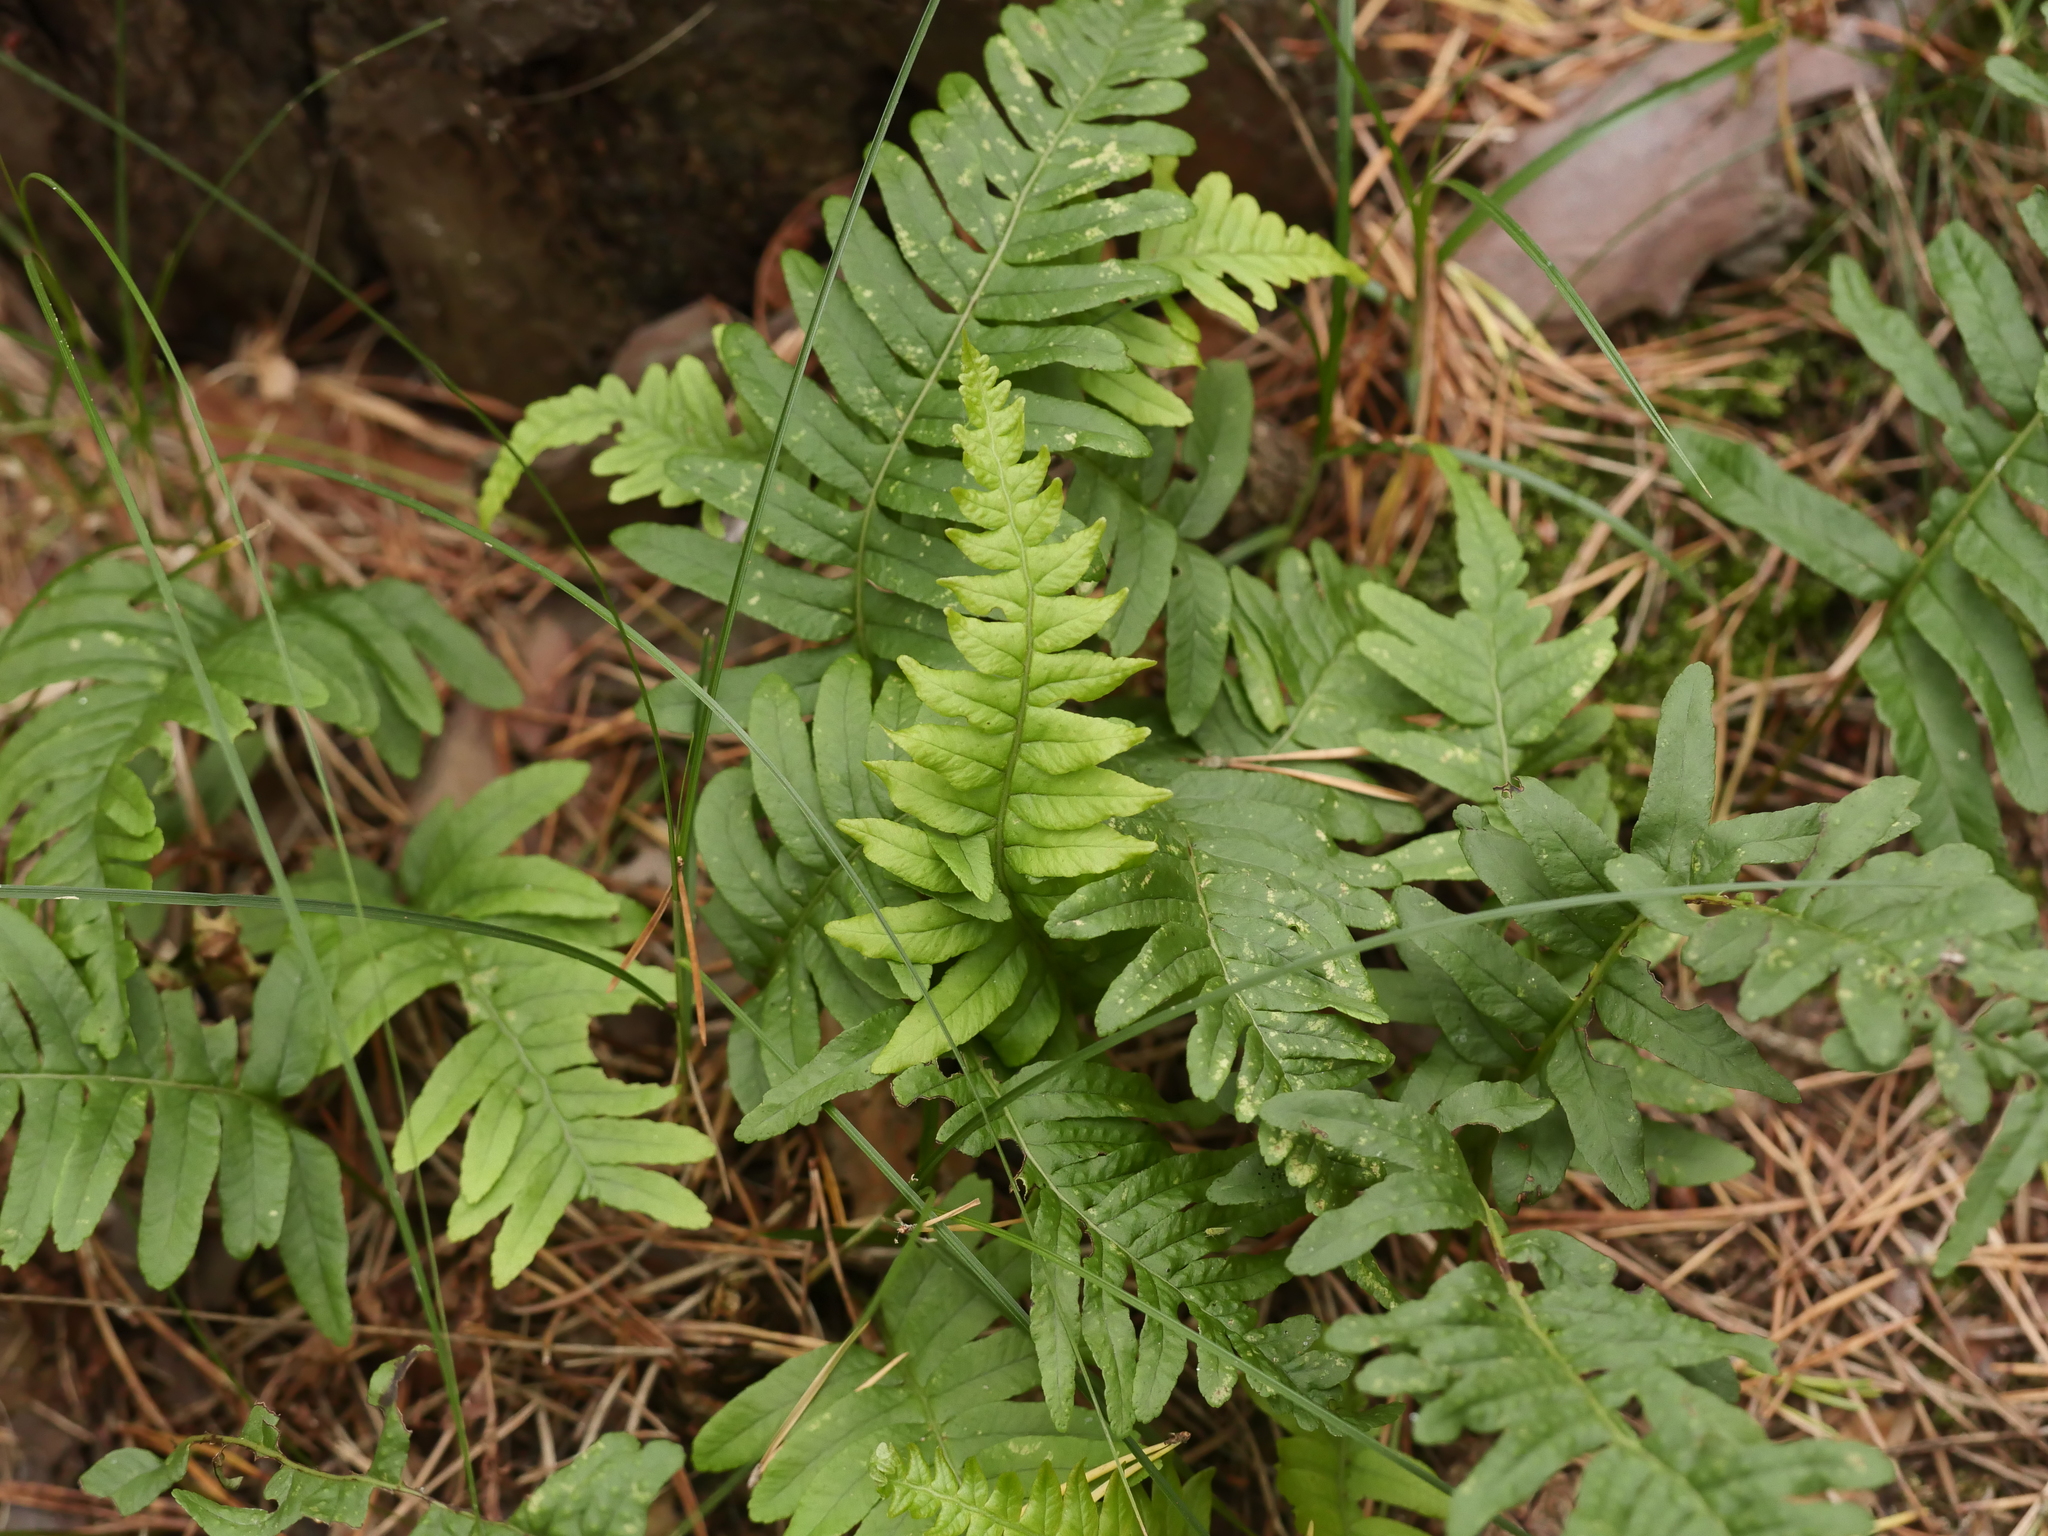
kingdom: Plantae
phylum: Tracheophyta
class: Polypodiopsida
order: Polypodiales
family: Polypodiaceae
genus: Polypodium
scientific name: Polypodium vulgare
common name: Common polypody
